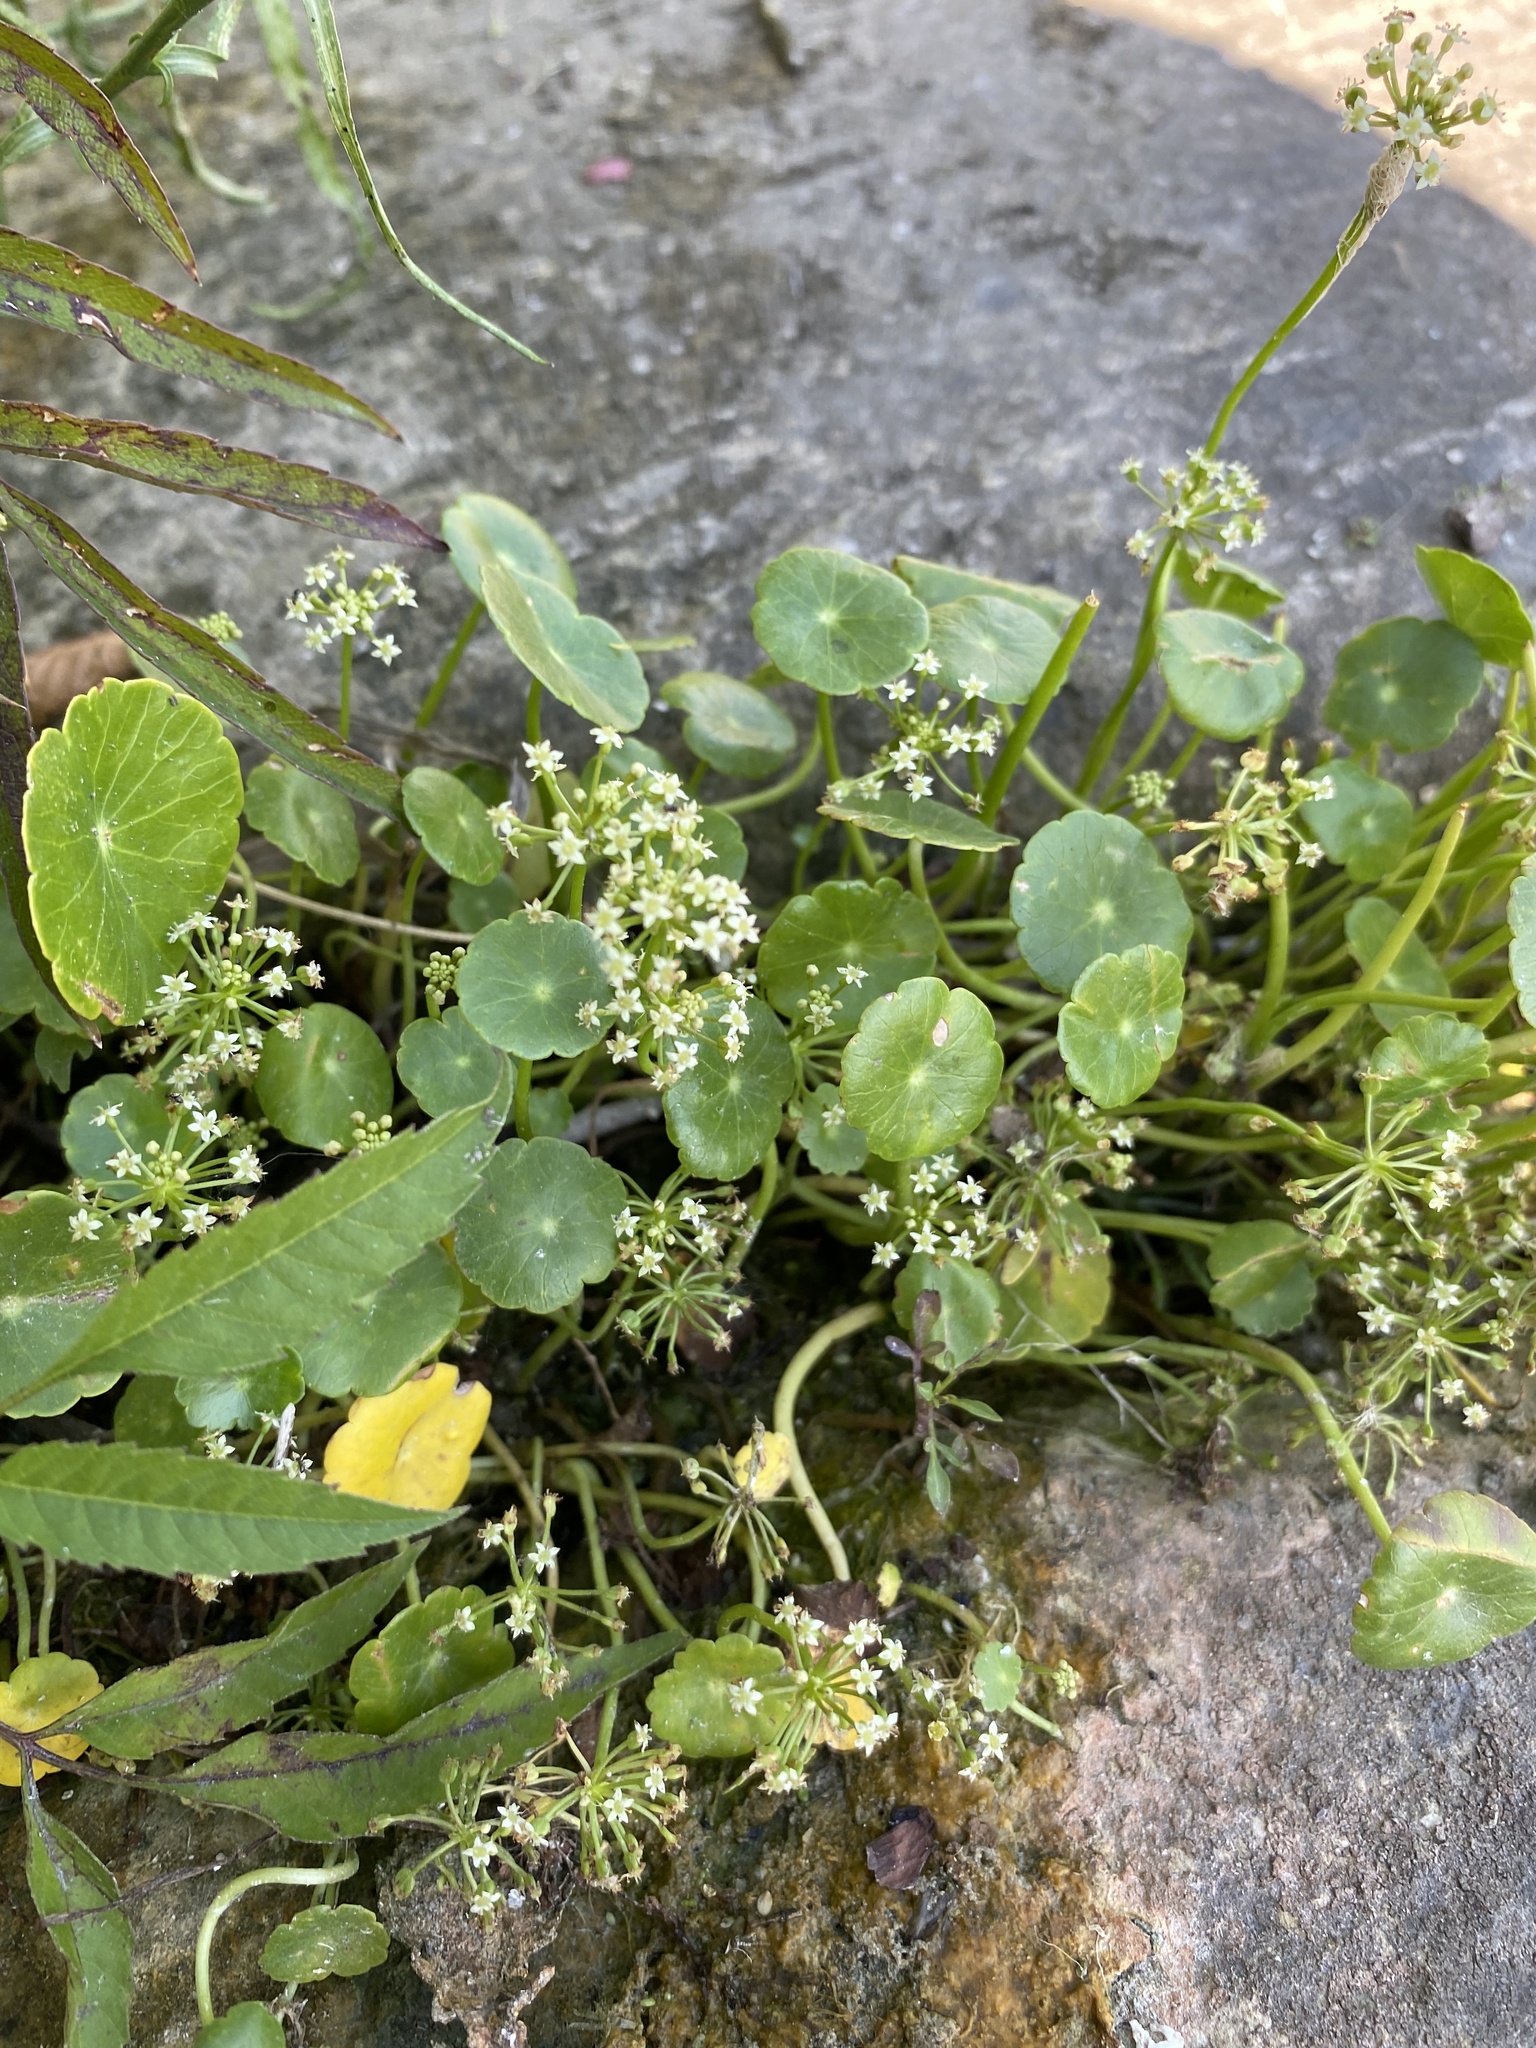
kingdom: Plantae
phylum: Tracheophyta
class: Magnoliopsida
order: Apiales
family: Araliaceae
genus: Hydrocotyle
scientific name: Hydrocotyle umbellata
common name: Water pennywort
